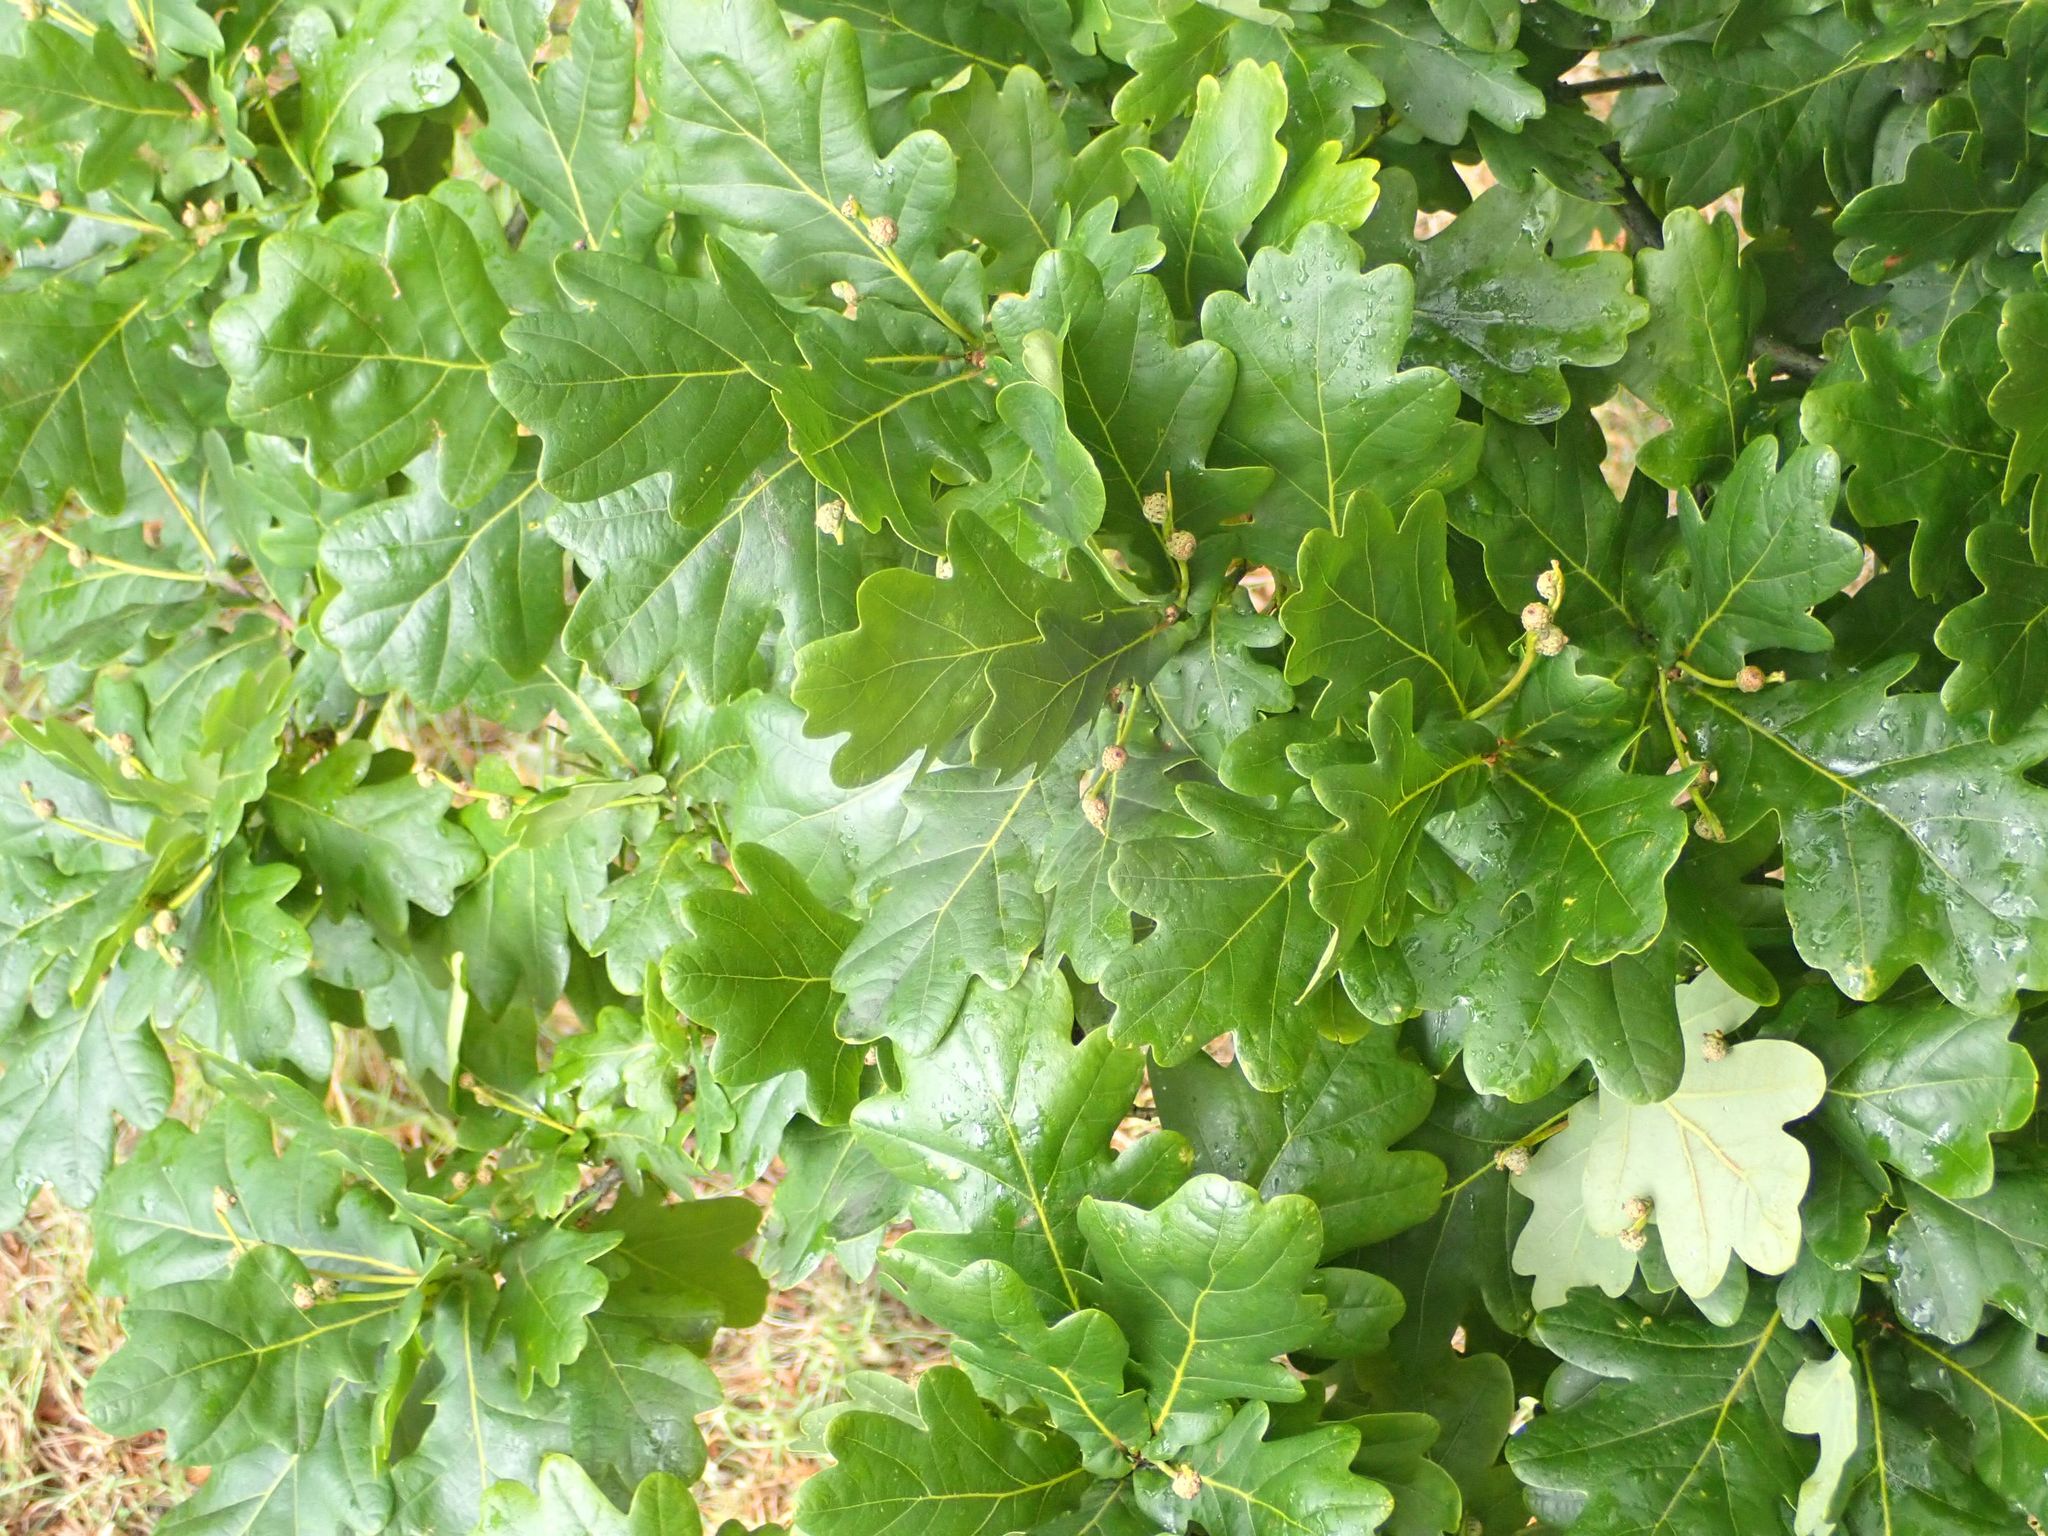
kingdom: Plantae
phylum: Tracheophyta
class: Magnoliopsida
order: Fagales
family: Fagaceae
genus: Quercus
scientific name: Quercus robur
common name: Pedunculate oak
